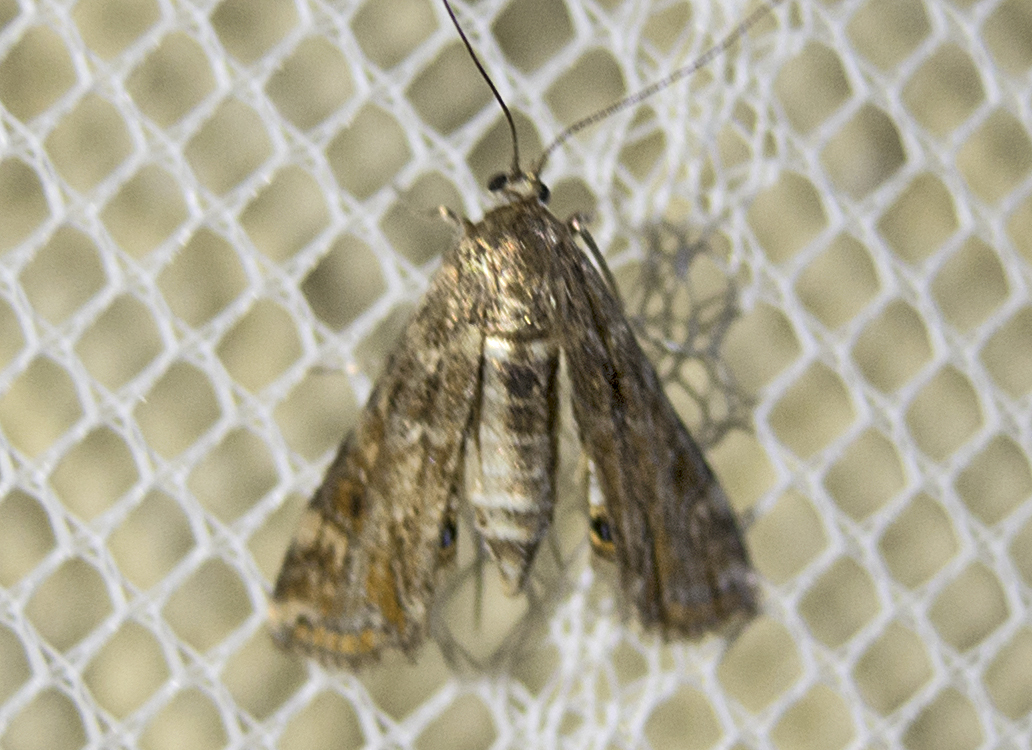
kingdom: Animalia
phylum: Arthropoda
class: Insecta
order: Lepidoptera
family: Crambidae
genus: Cataclysta
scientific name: Cataclysta lemnata
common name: Small china-mark
